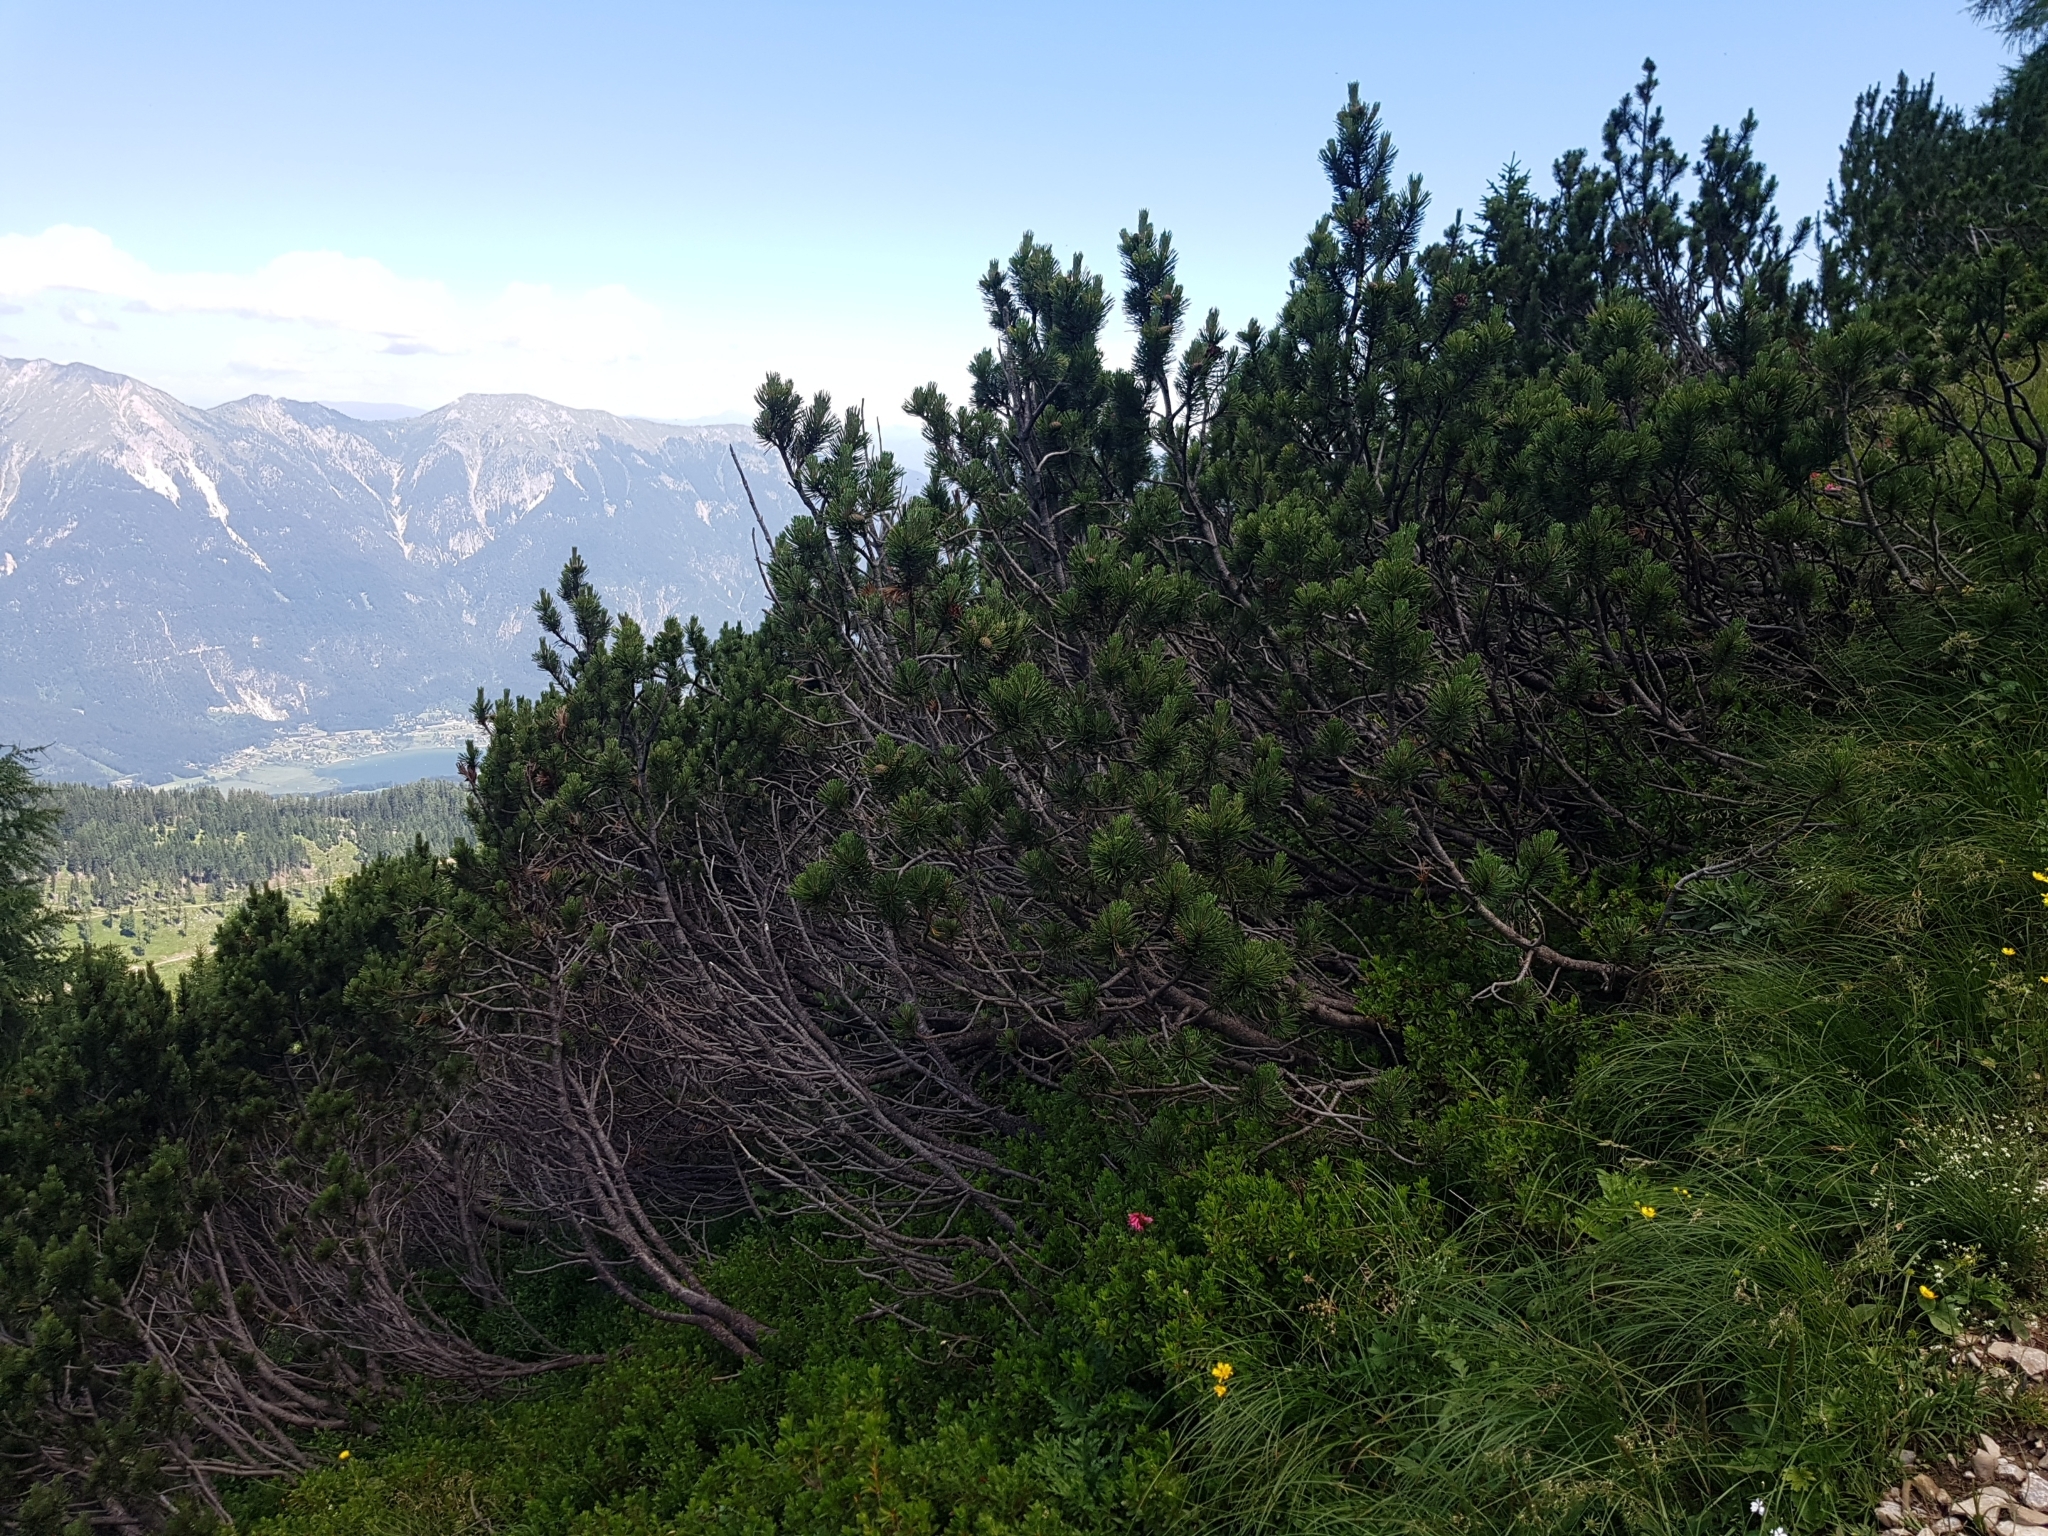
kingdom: Plantae
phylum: Tracheophyta
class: Pinopsida
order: Pinales
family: Pinaceae
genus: Pinus
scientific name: Pinus mugo
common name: Mugo pine
